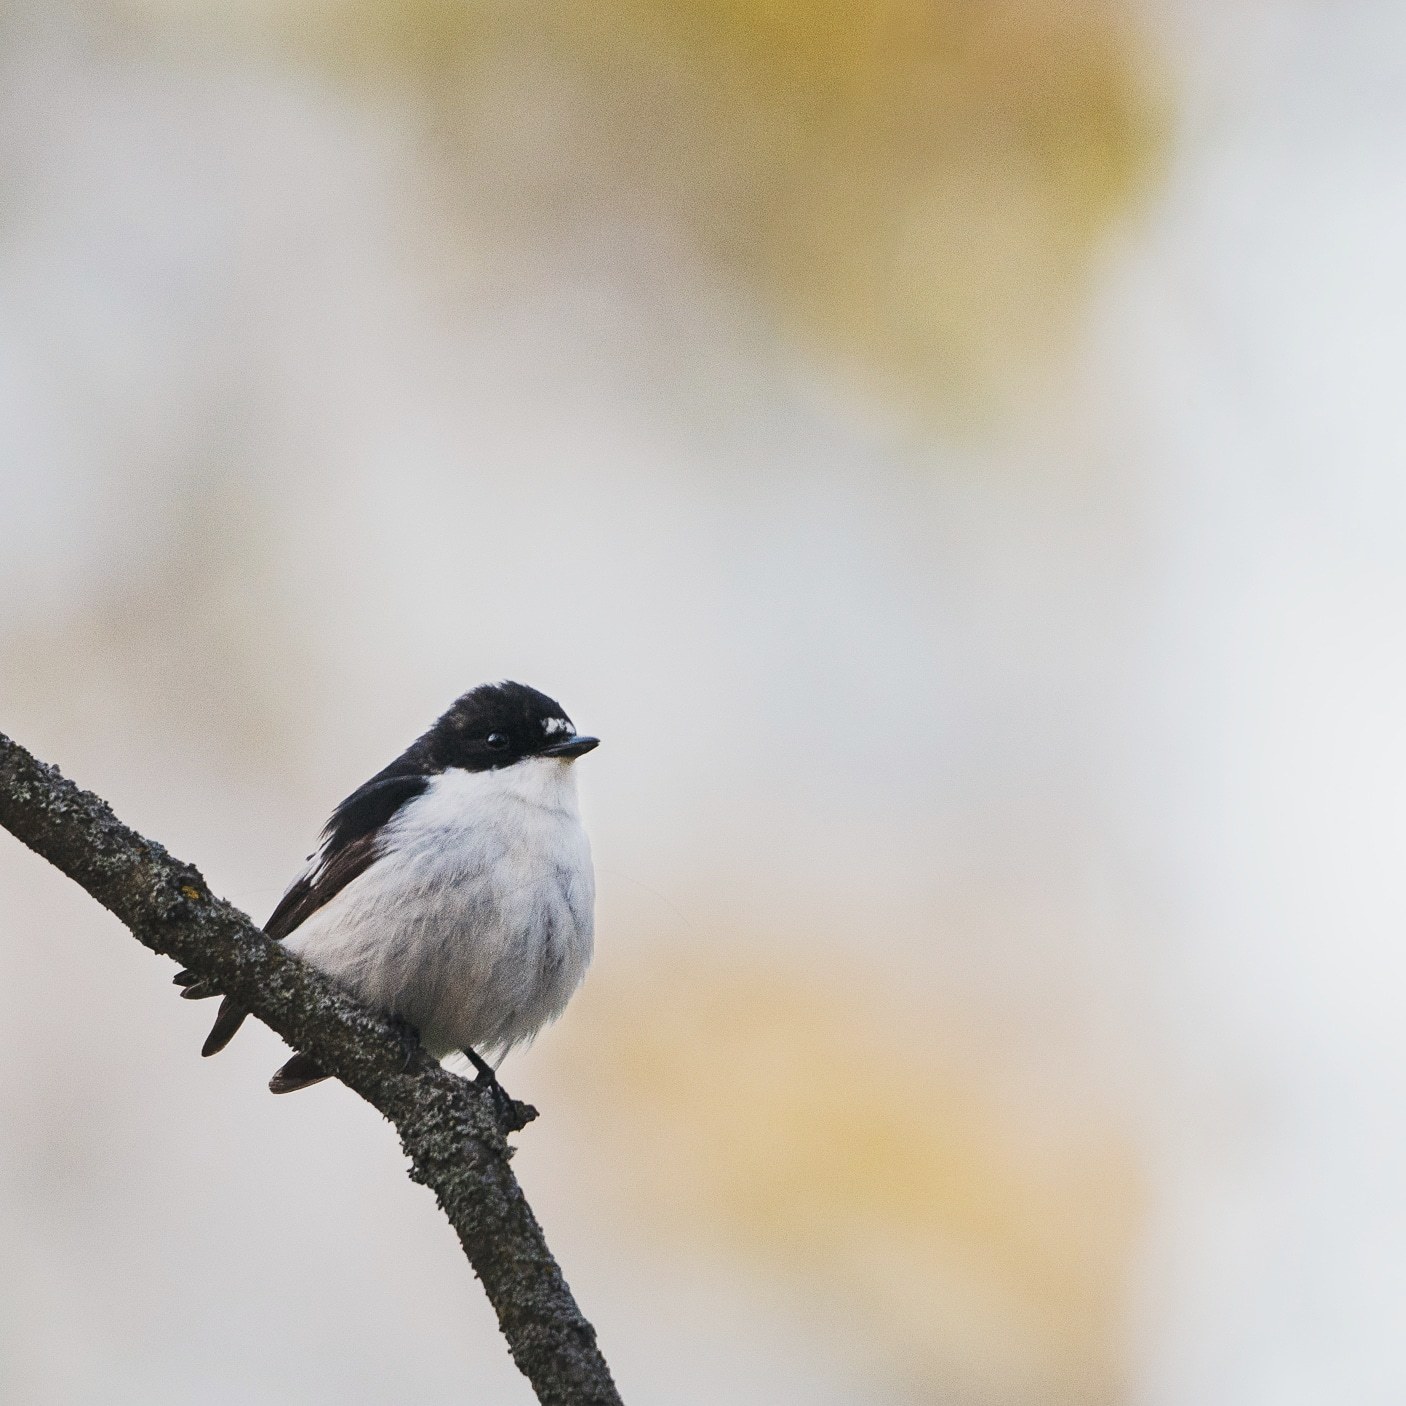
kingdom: Animalia
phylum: Chordata
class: Aves
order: Passeriformes
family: Muscicapidae
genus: Ficedula
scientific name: Ficedula hypoleuca
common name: European pied flycatcher
